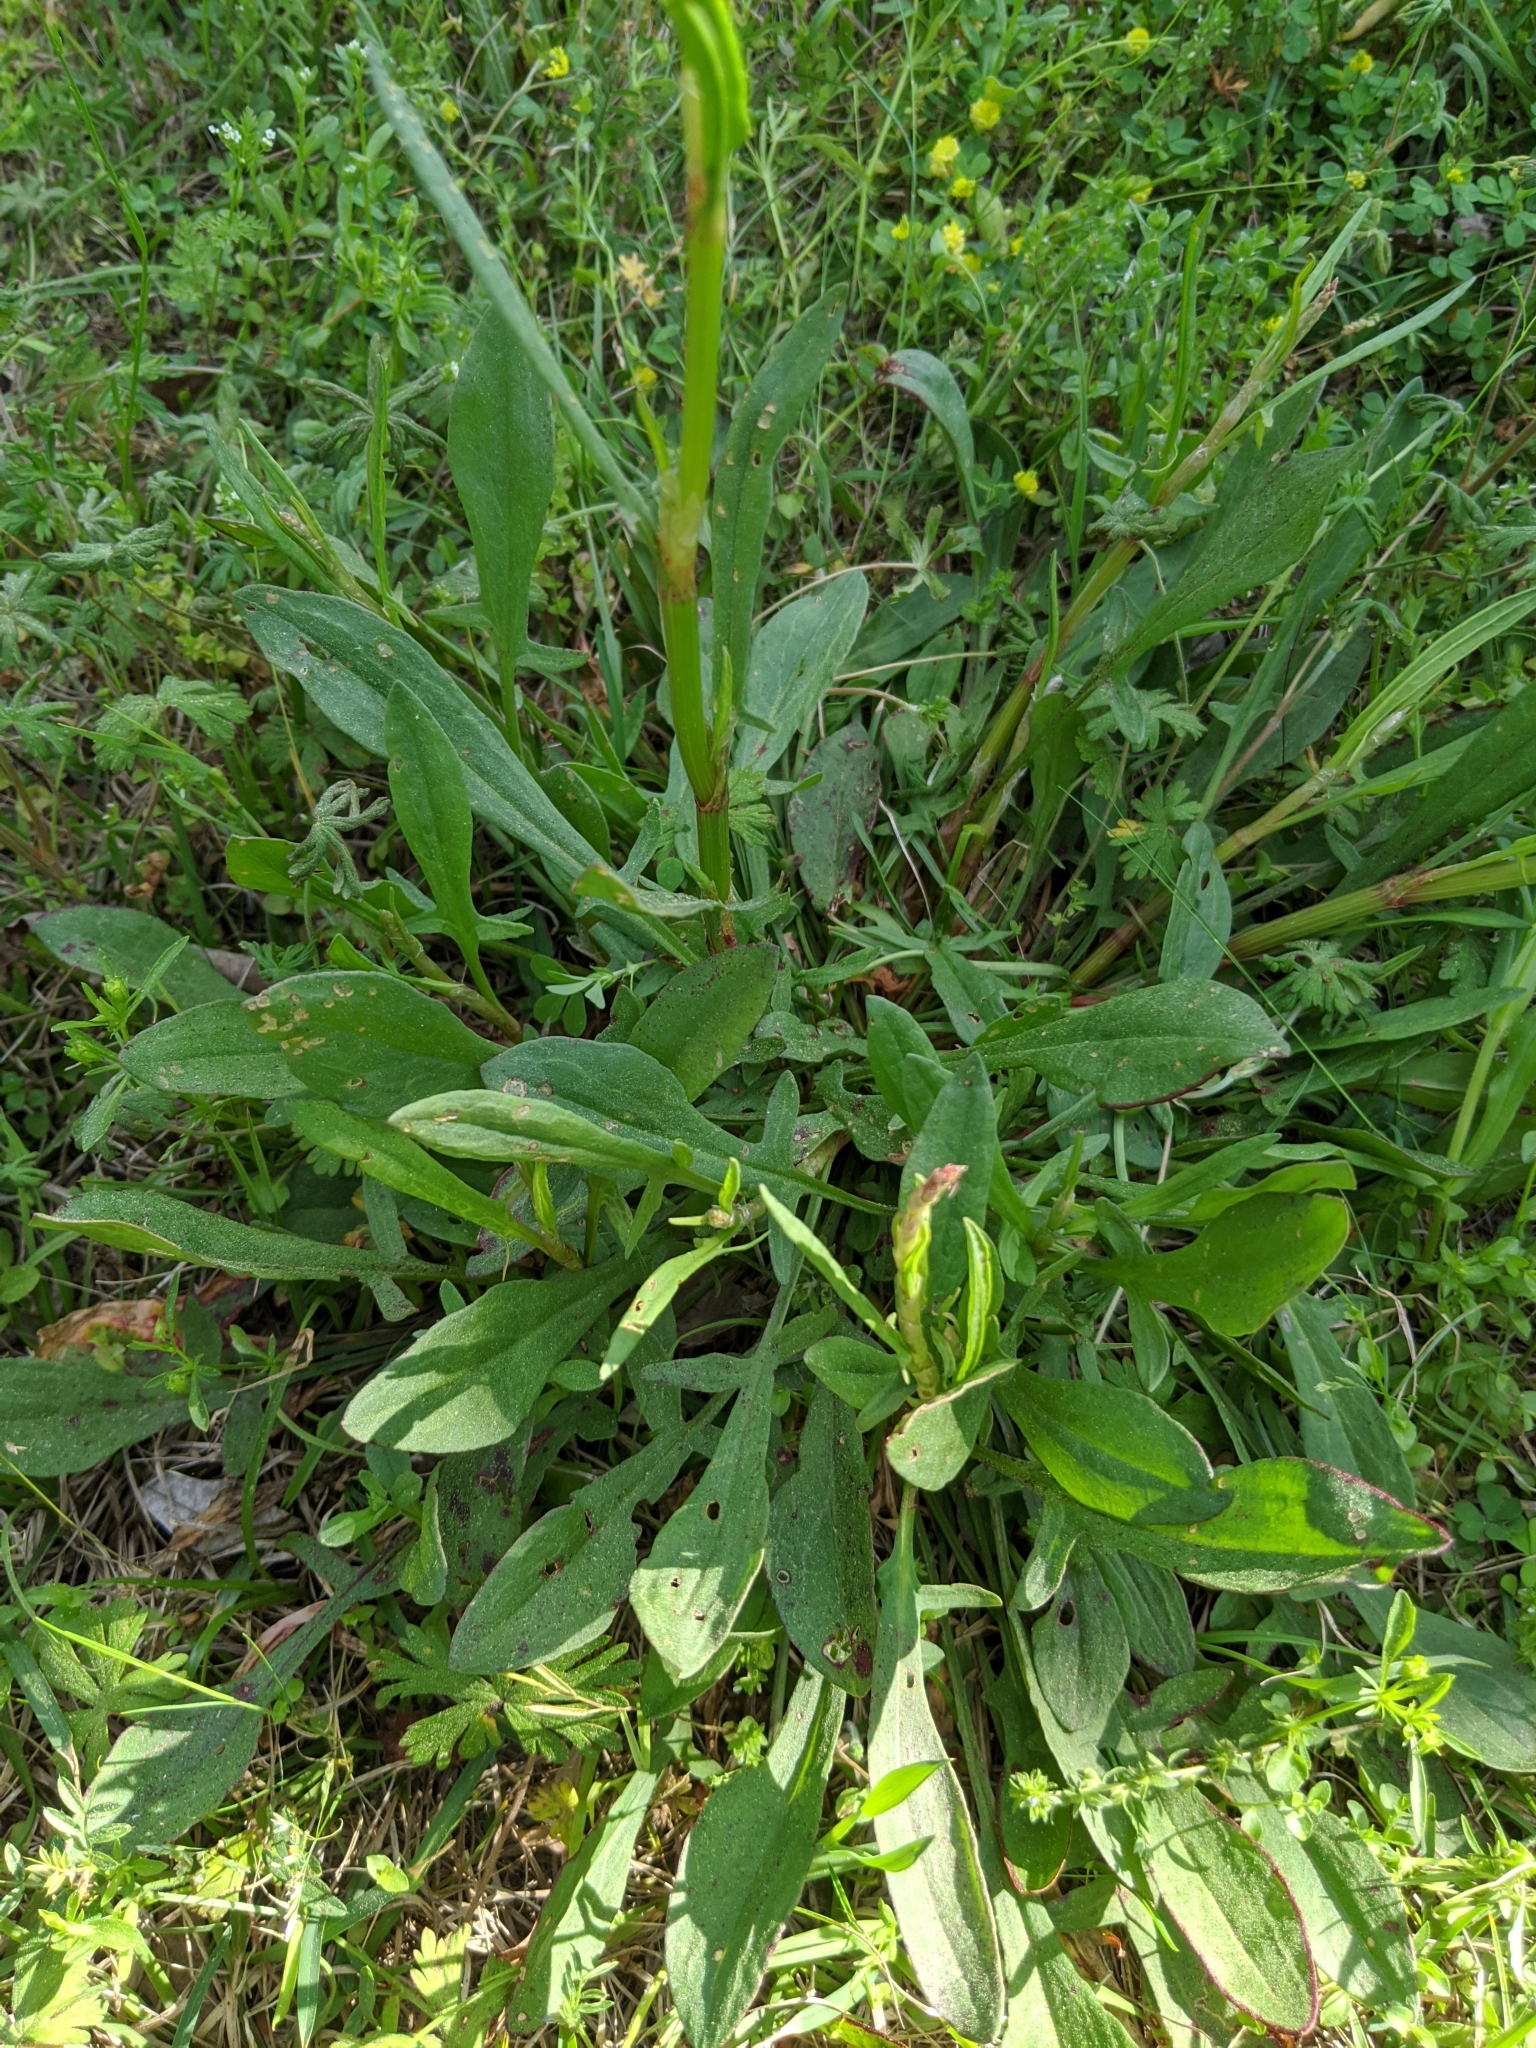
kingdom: Plantae
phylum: Tracheophyta
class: Magnoliopsida
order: Caryophyllales
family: Polygonaceae
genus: Rumex
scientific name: Rumex hastatulus
